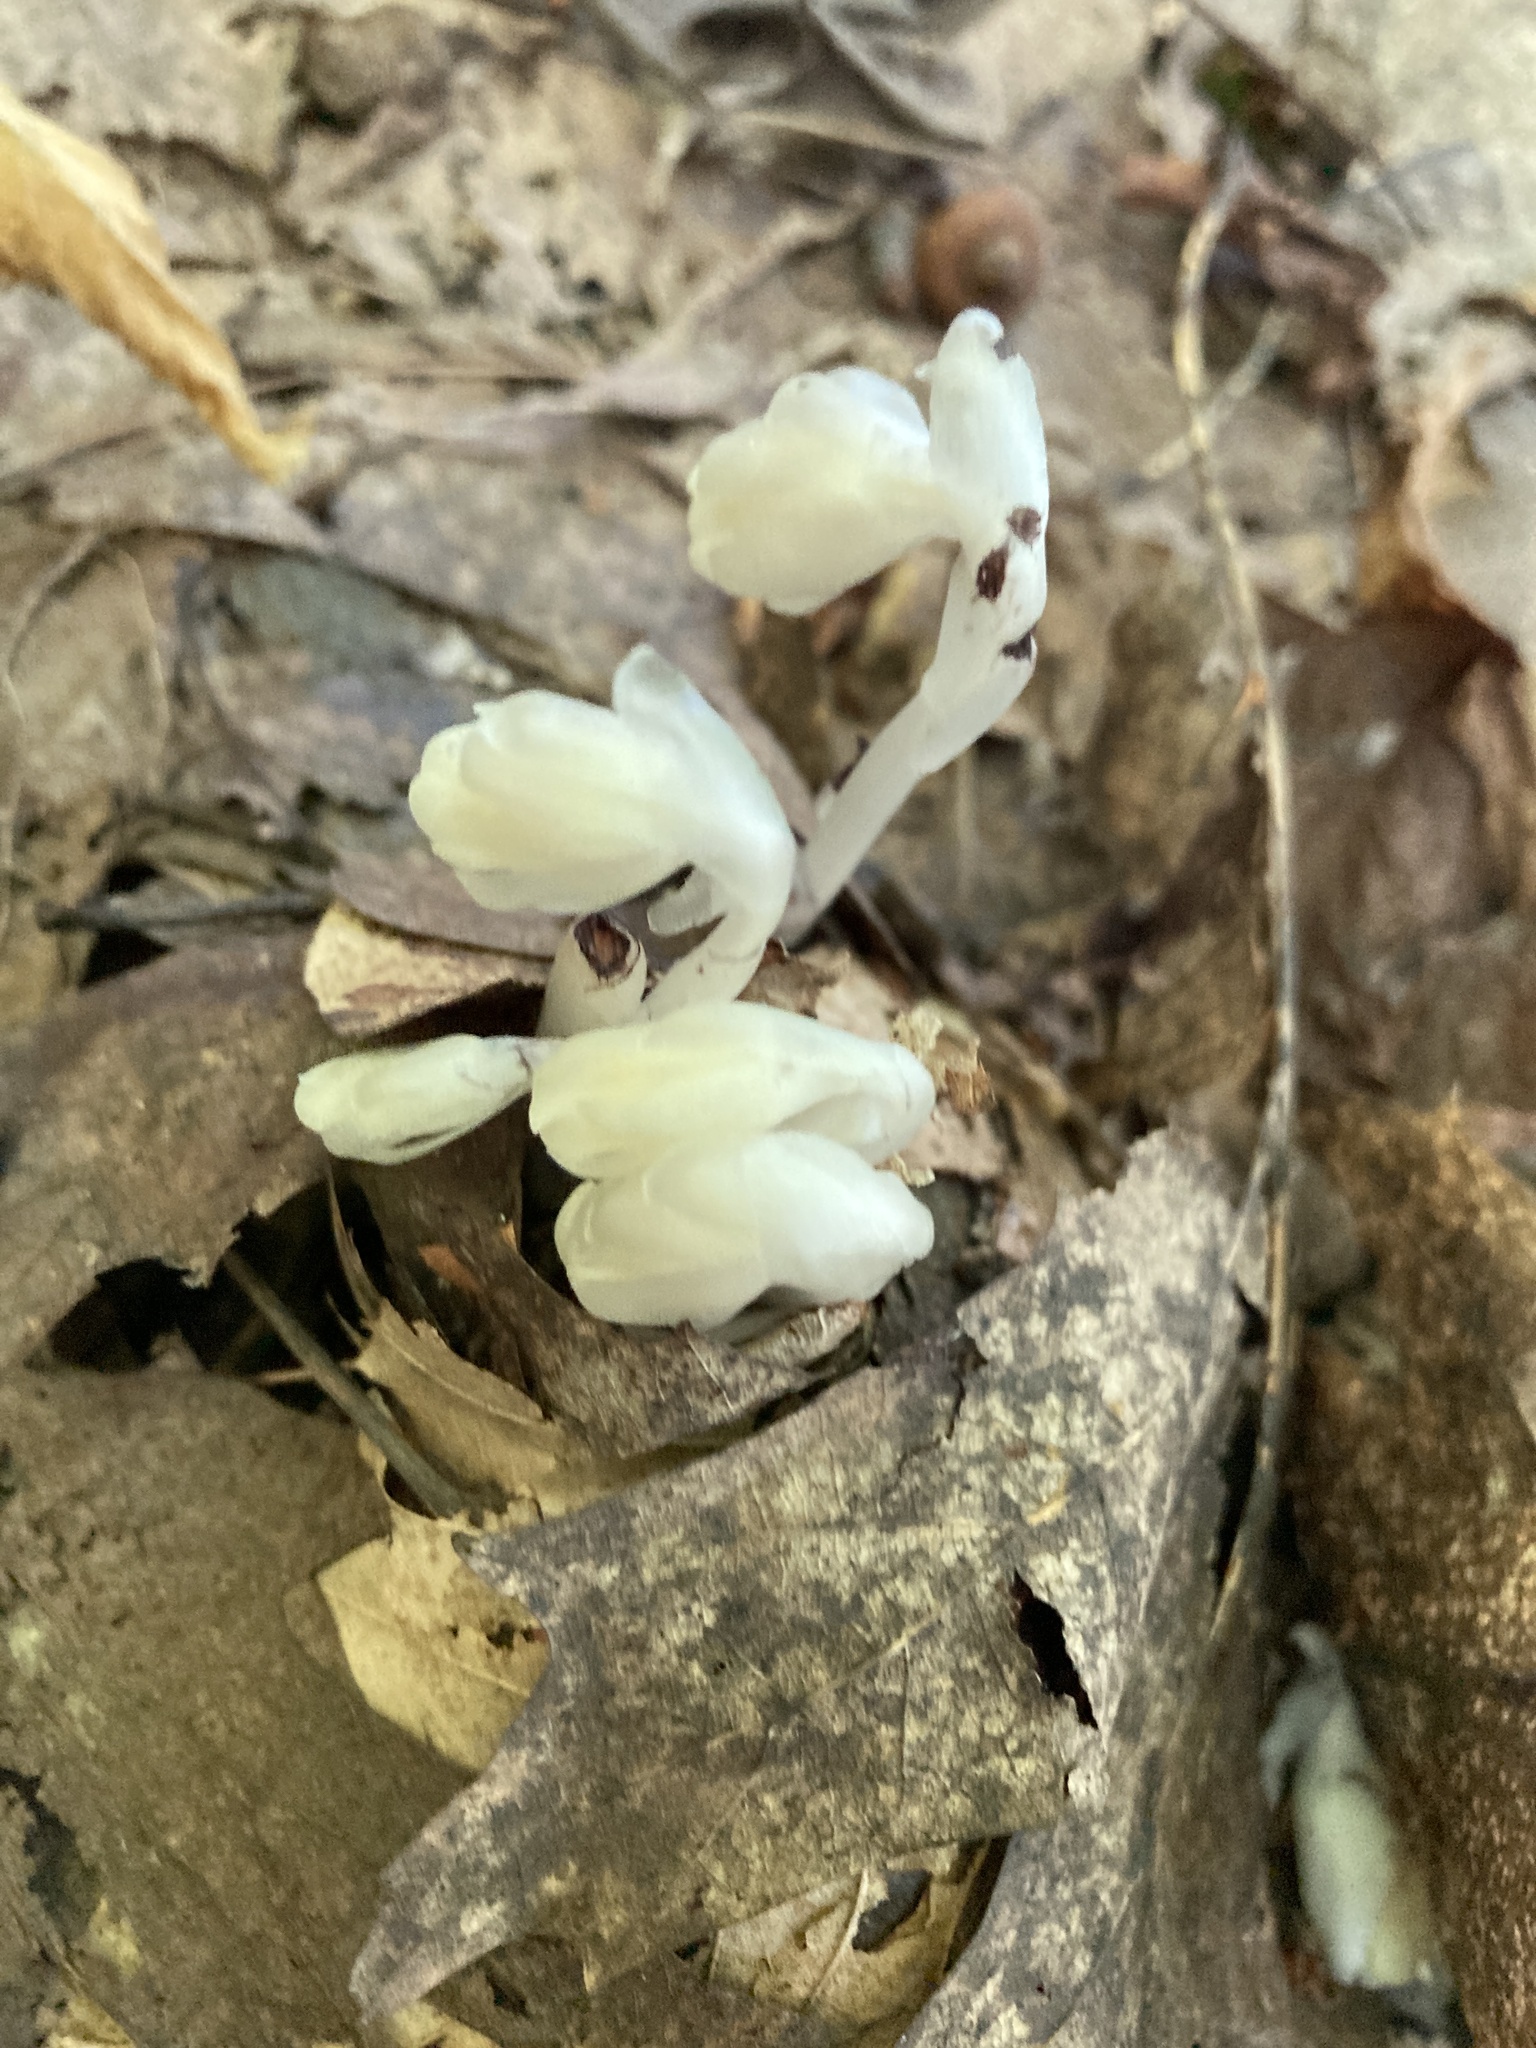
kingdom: Plantae
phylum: Tracheophyta
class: Magnoliopsida
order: Ericales
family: Ericaceae
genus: Monotropa
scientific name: Monotropa uniflora
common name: Convulsion root
